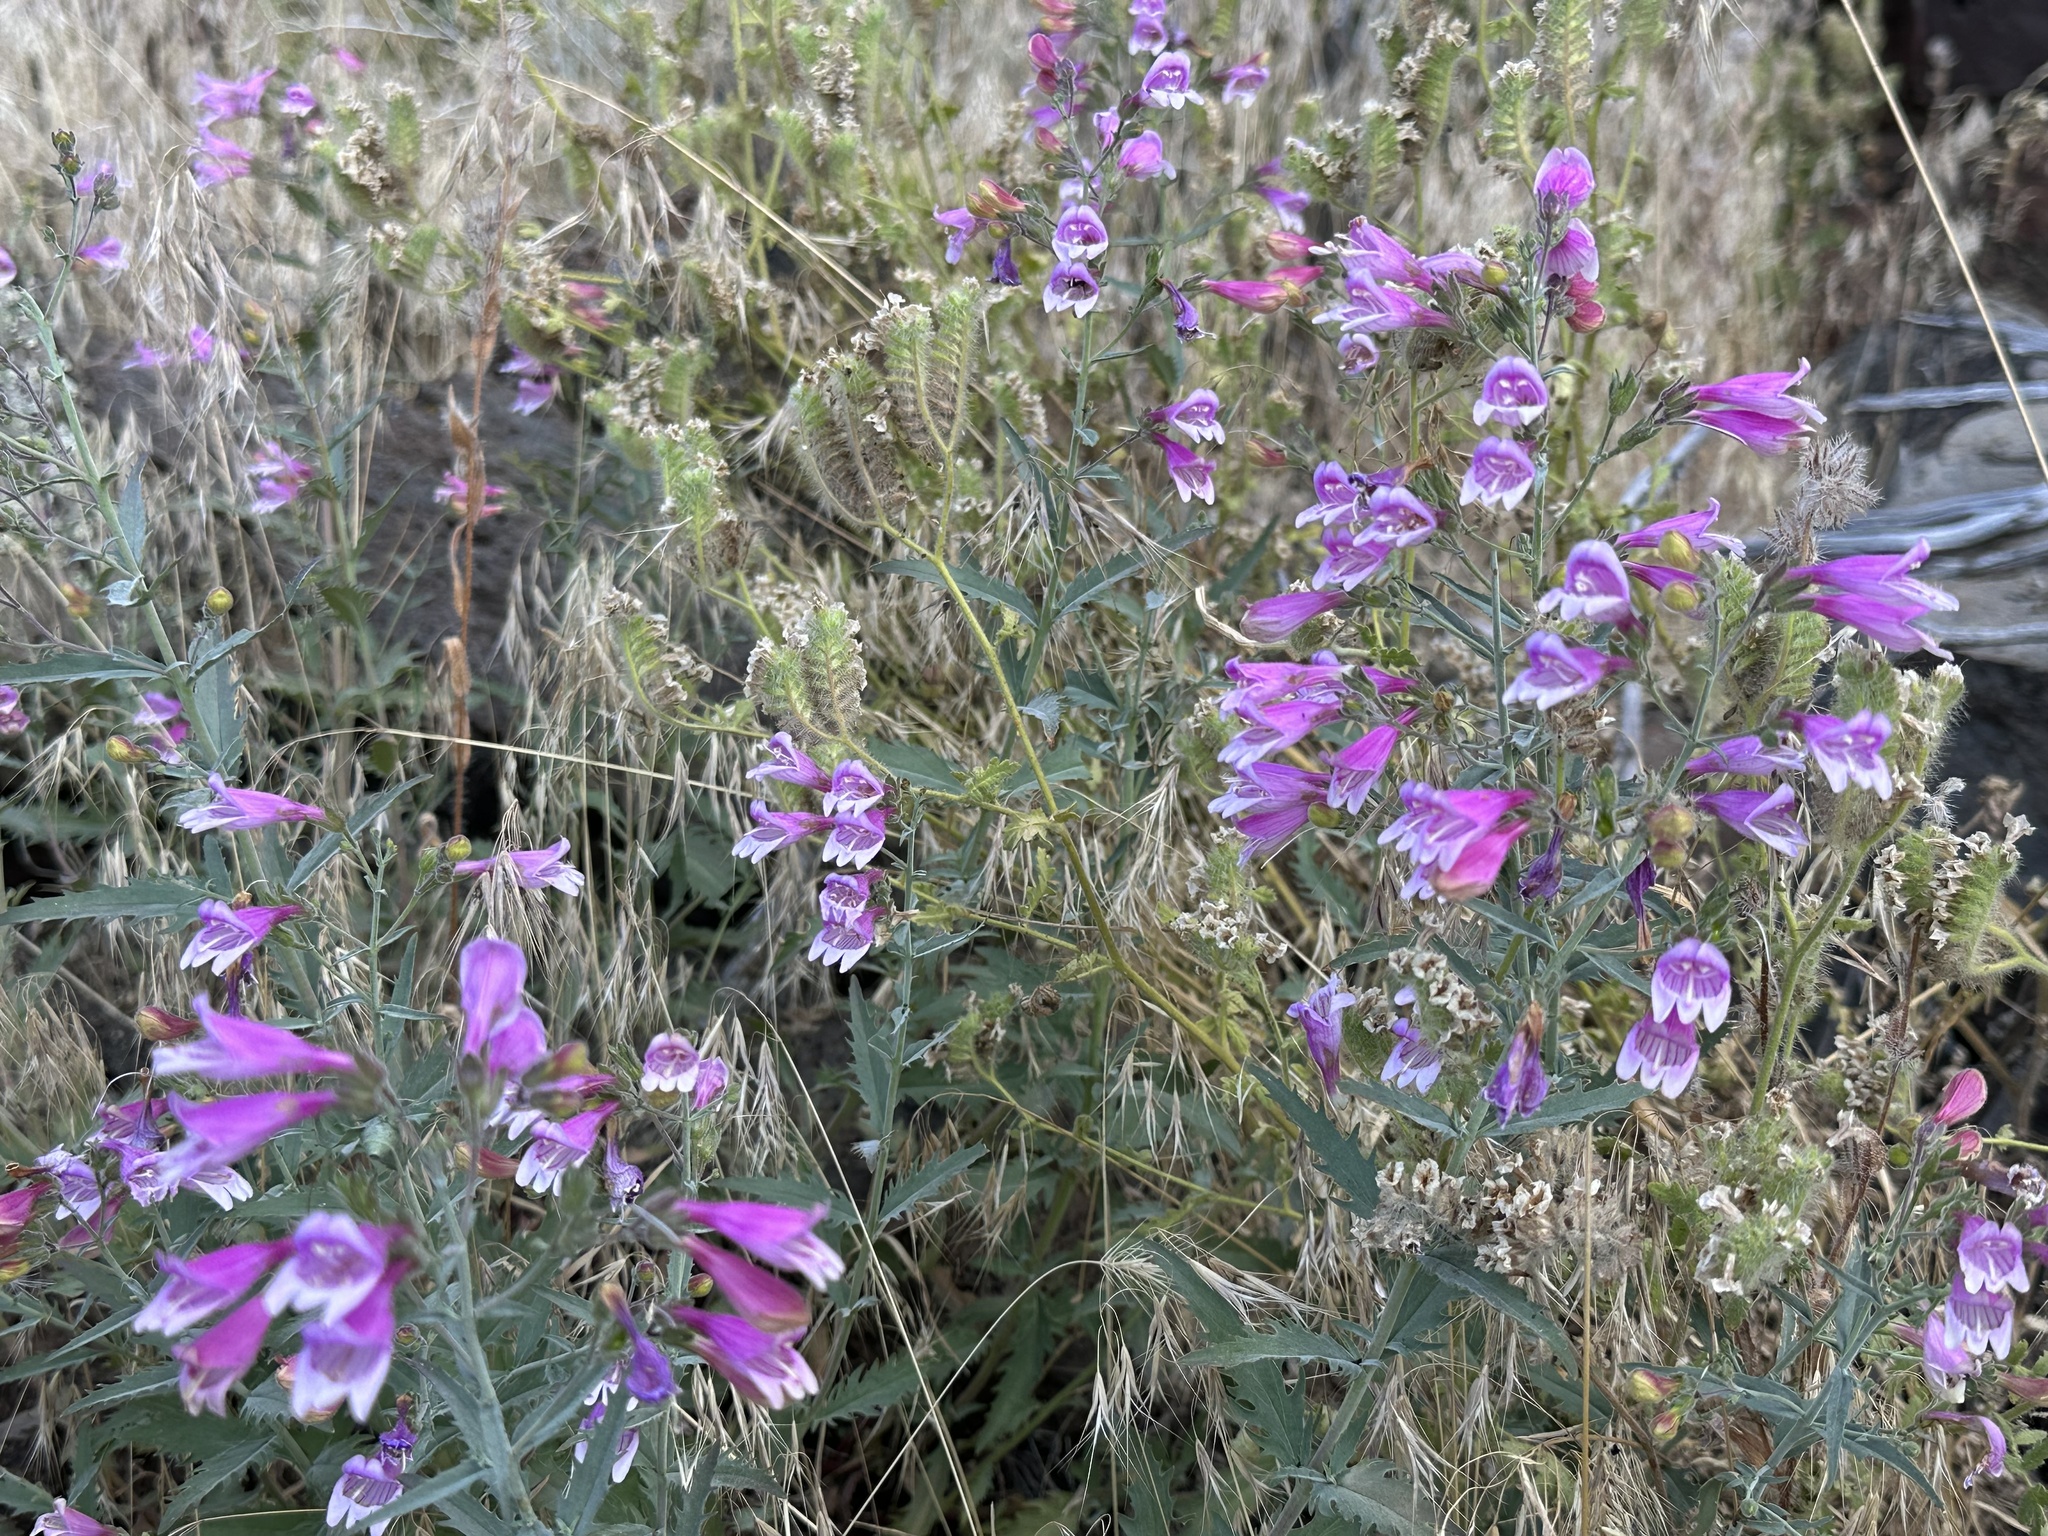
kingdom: Plantae
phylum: Tracheophyta
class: Magnoliopsida
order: Lamiales
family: Plantaginaceae
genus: Penstemon
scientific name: Penstemon richardsonii
